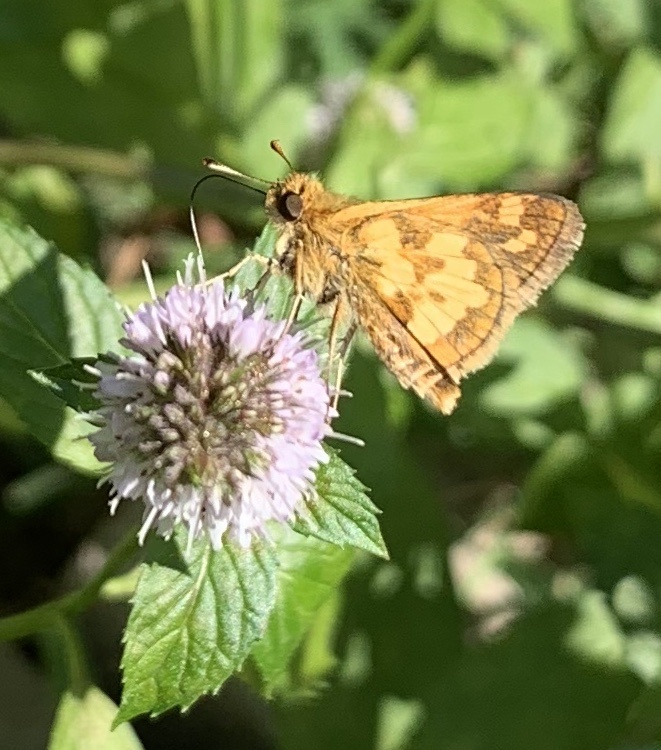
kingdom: Animalia
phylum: Arthropoda
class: Insecta
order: Lepidoptera
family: Hesperiidae
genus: Polites
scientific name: Polites coras
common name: Peck's skipper
